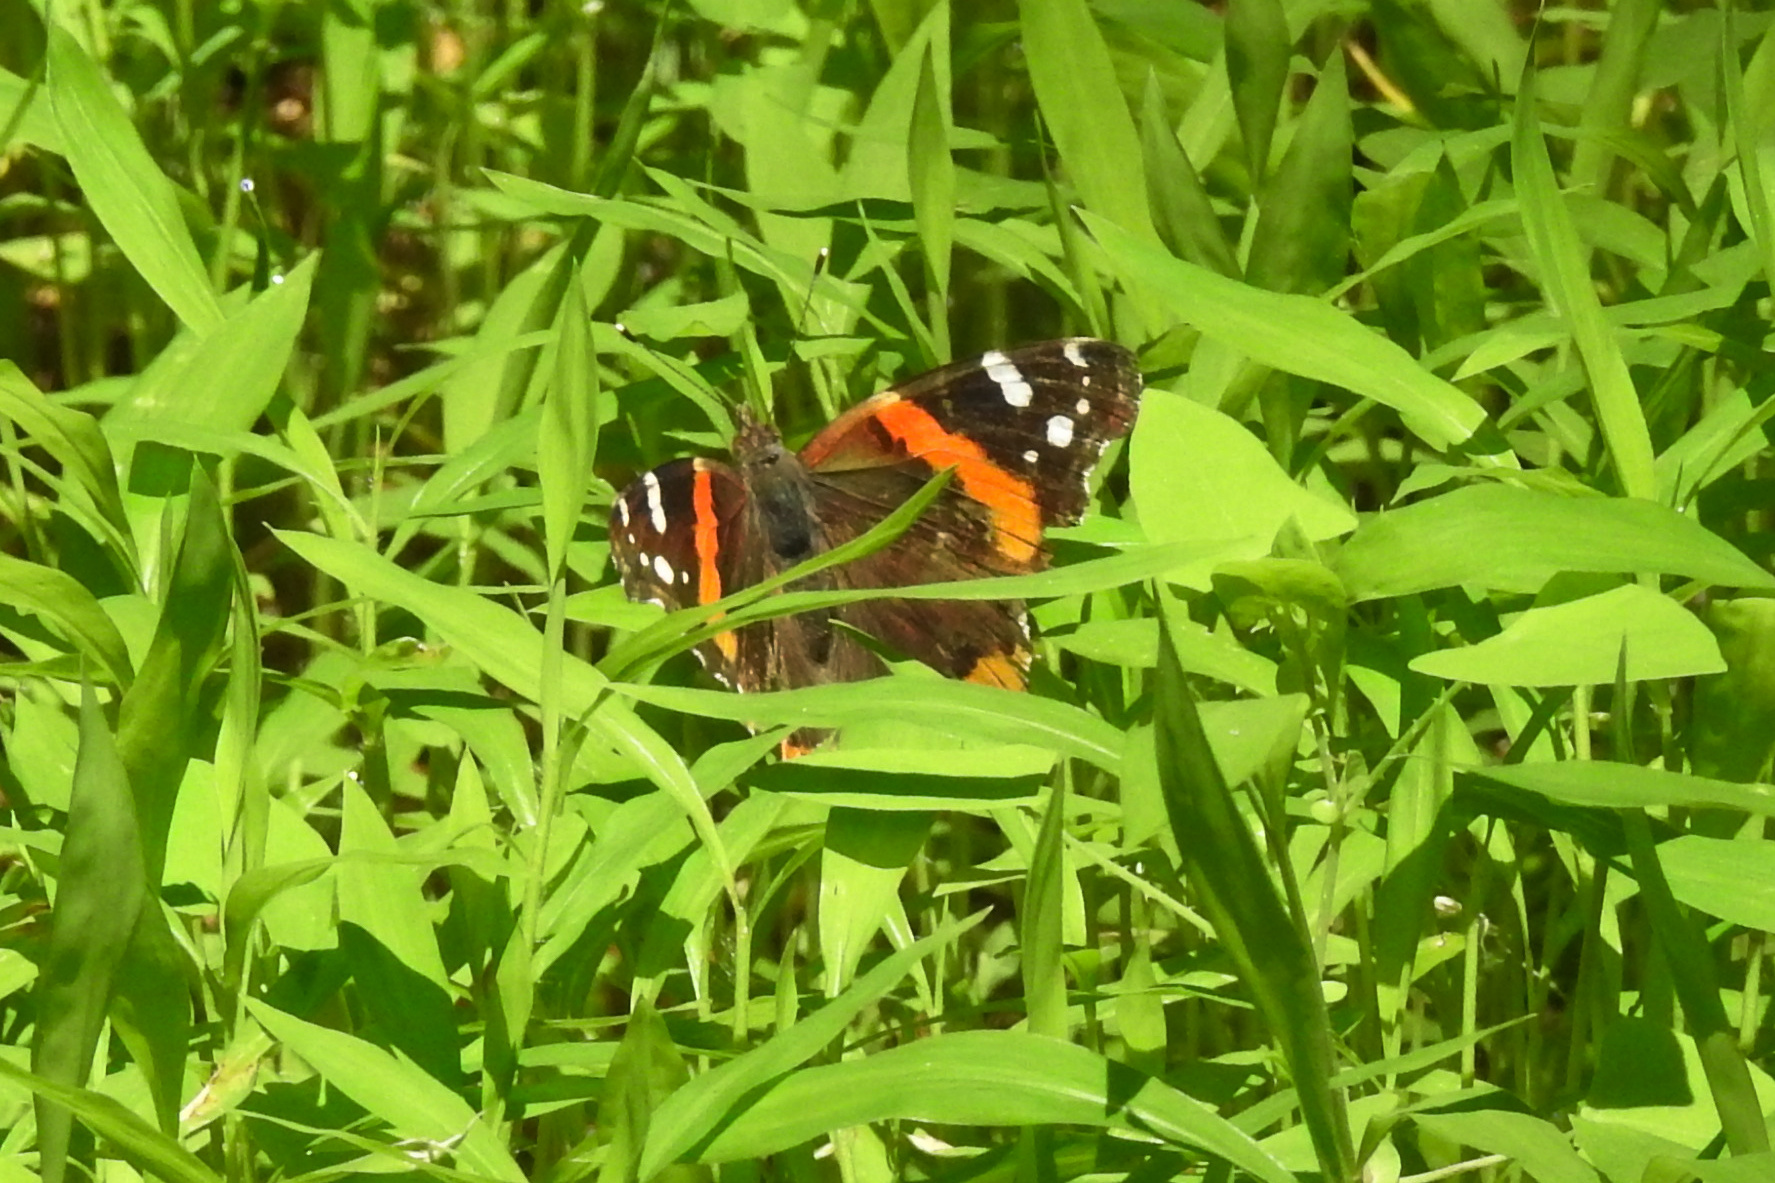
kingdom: Animalia
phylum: Arthropoda
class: Insecta
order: Lepidoptera
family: Nymphalidae
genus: Vanessa
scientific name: Vanessa atalanta
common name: Red admiral
